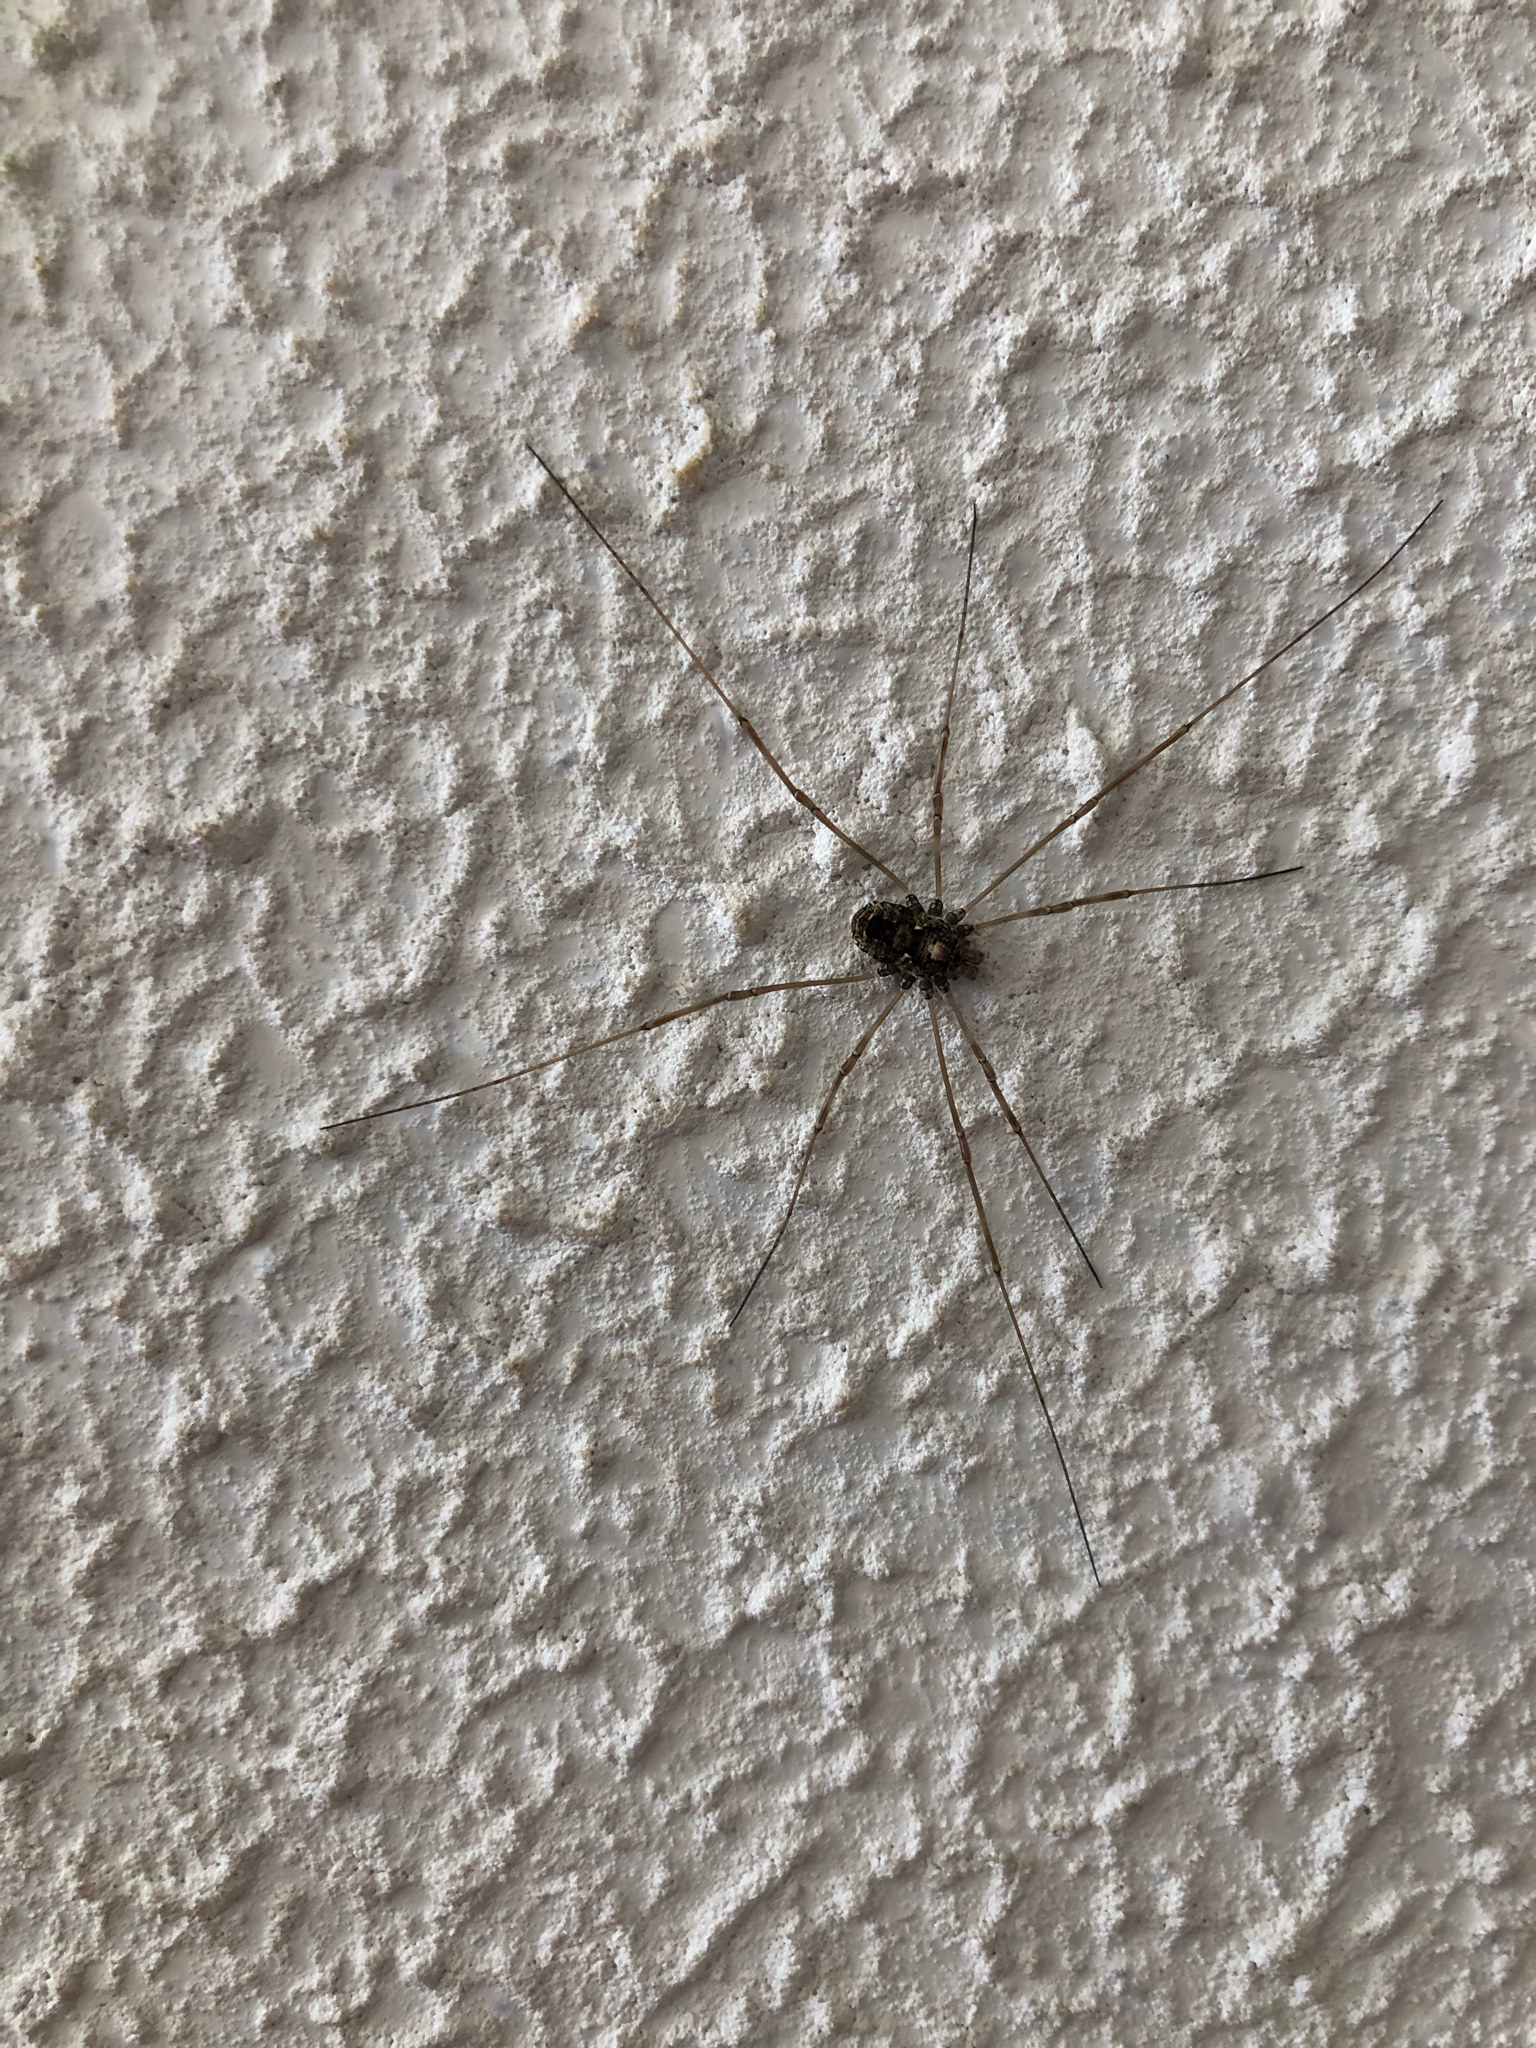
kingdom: Animalia
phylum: Arthropoda
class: Arachnida
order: Opiliones
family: Phalangiidae
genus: Platybunus
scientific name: Platybunus pinetorum
